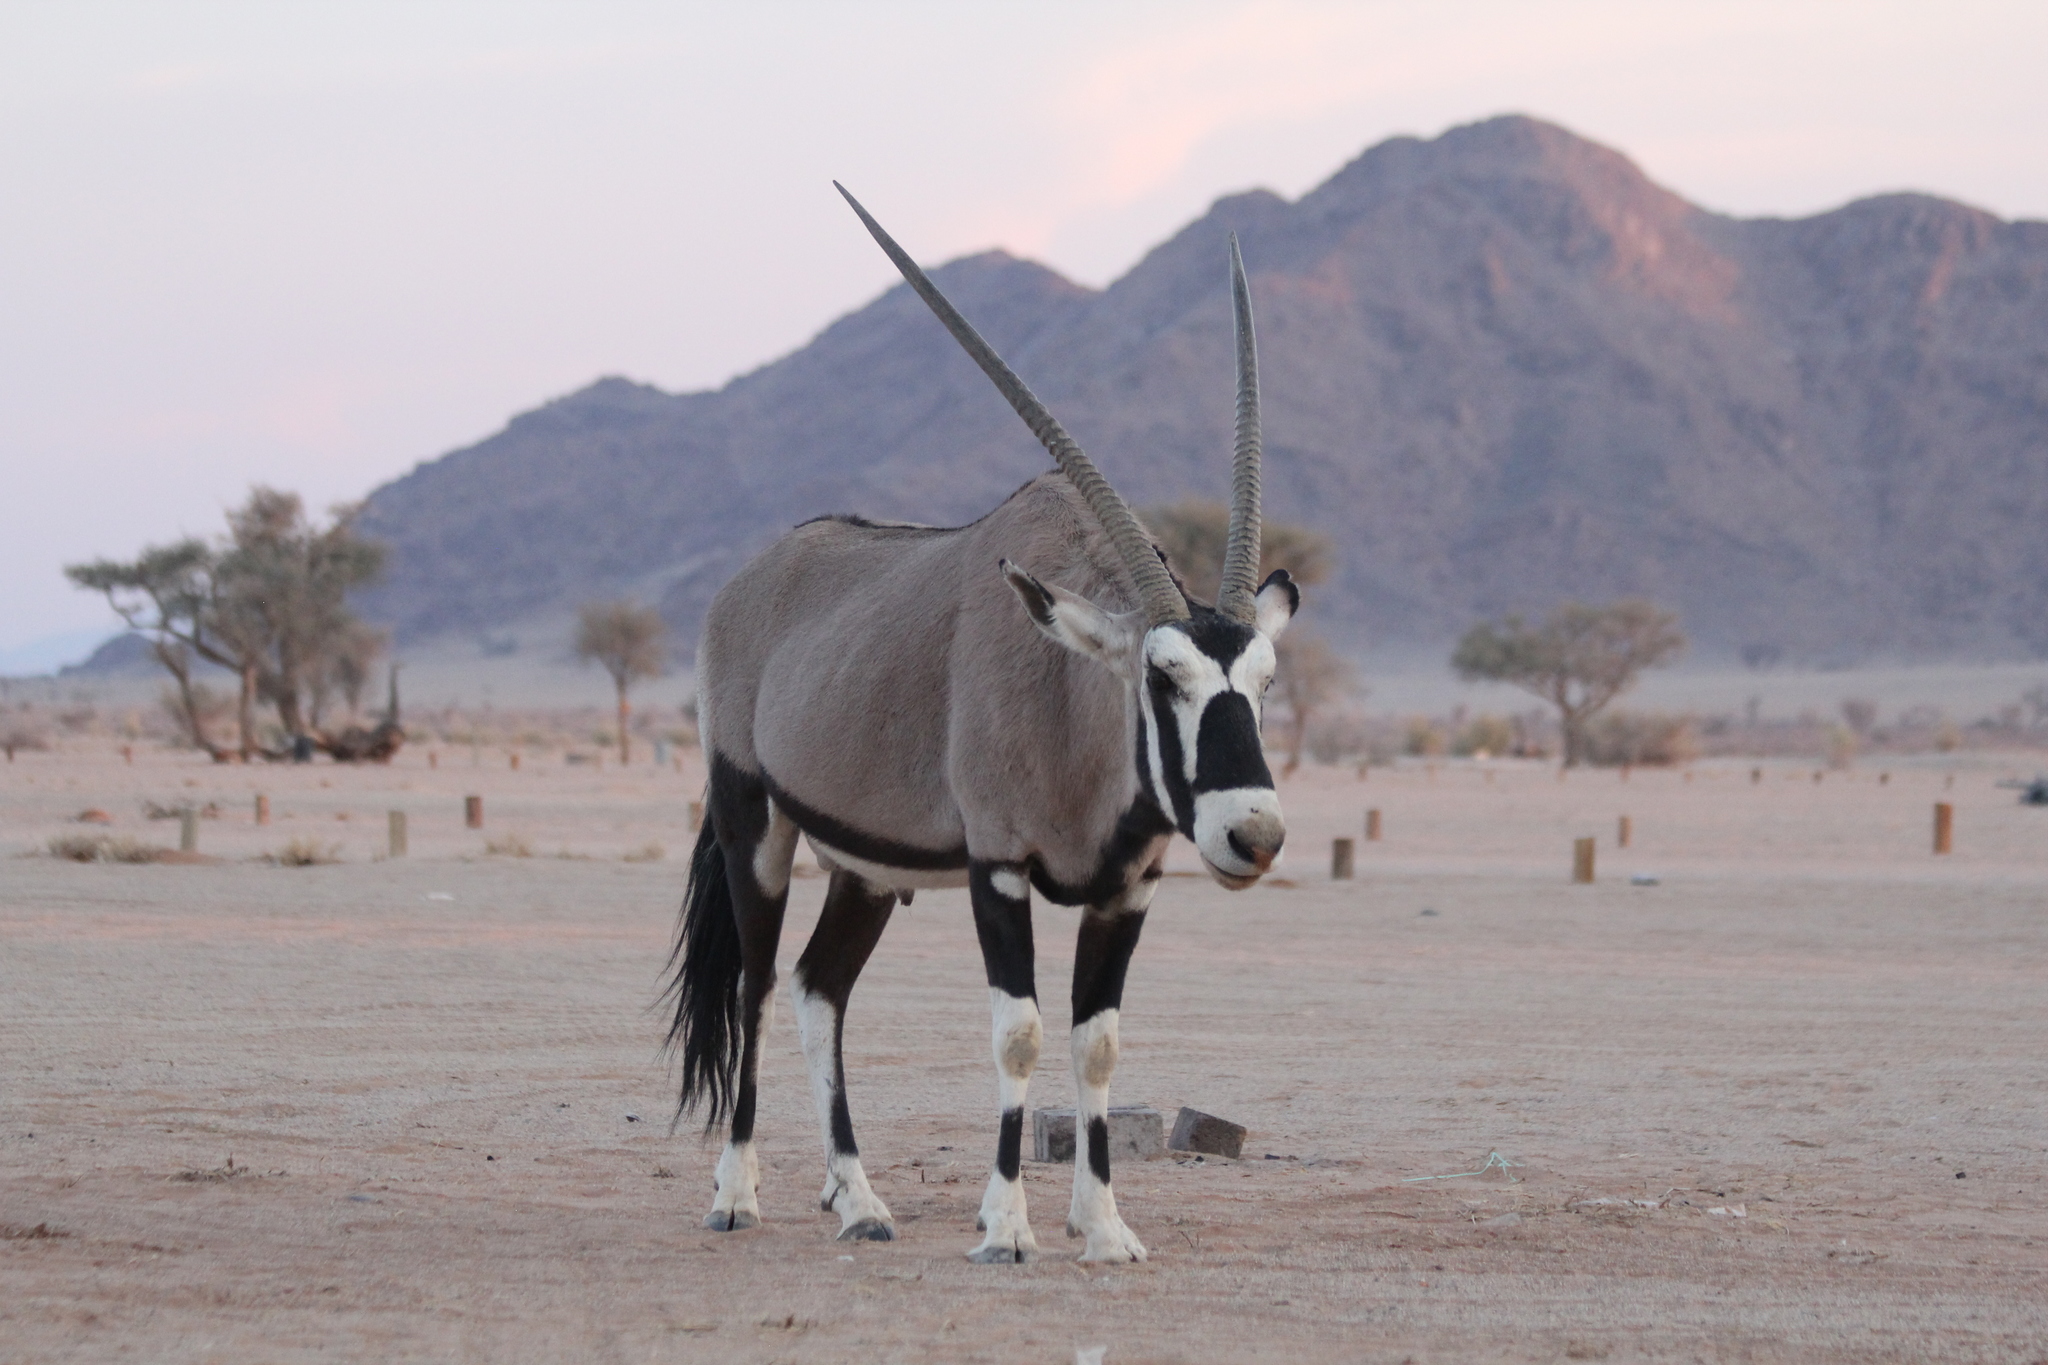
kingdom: Animalia
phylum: Chordata
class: Mammalia
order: Artiodactyla
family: Bovidae
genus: Oryx
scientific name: Oryx gazella
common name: Gemsbok
